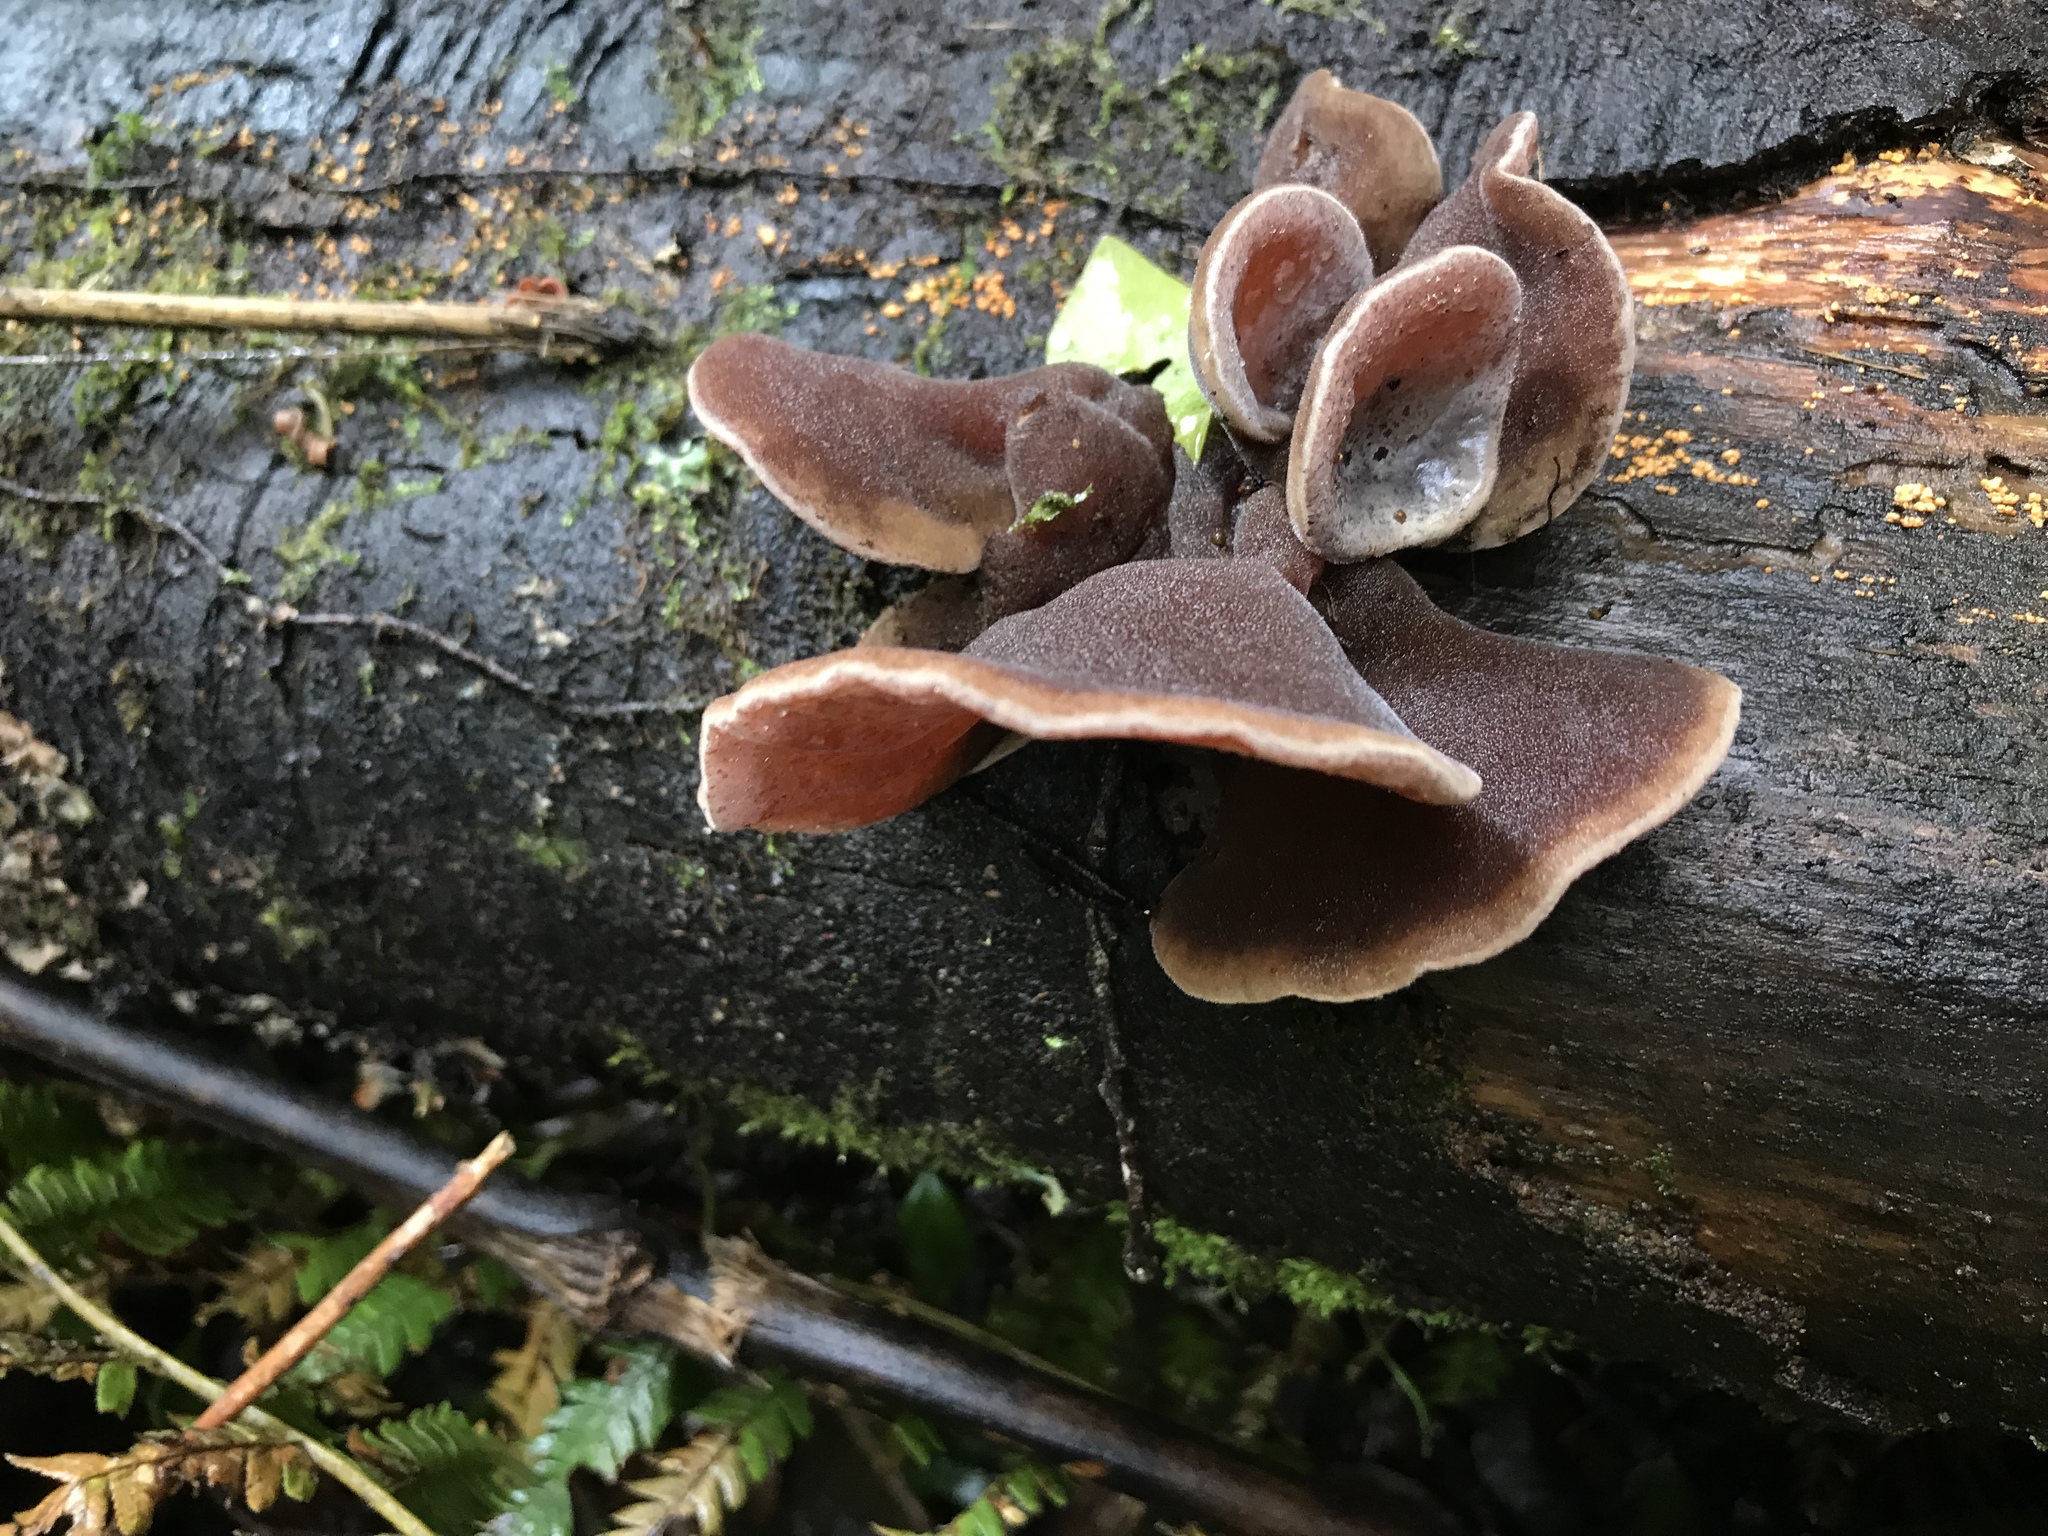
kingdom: Fungi
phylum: Basidiomycota
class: Agaricomycetes
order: Auriculariales
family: Auriculariaceae
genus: Auricularia
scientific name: Auricularia cornea
